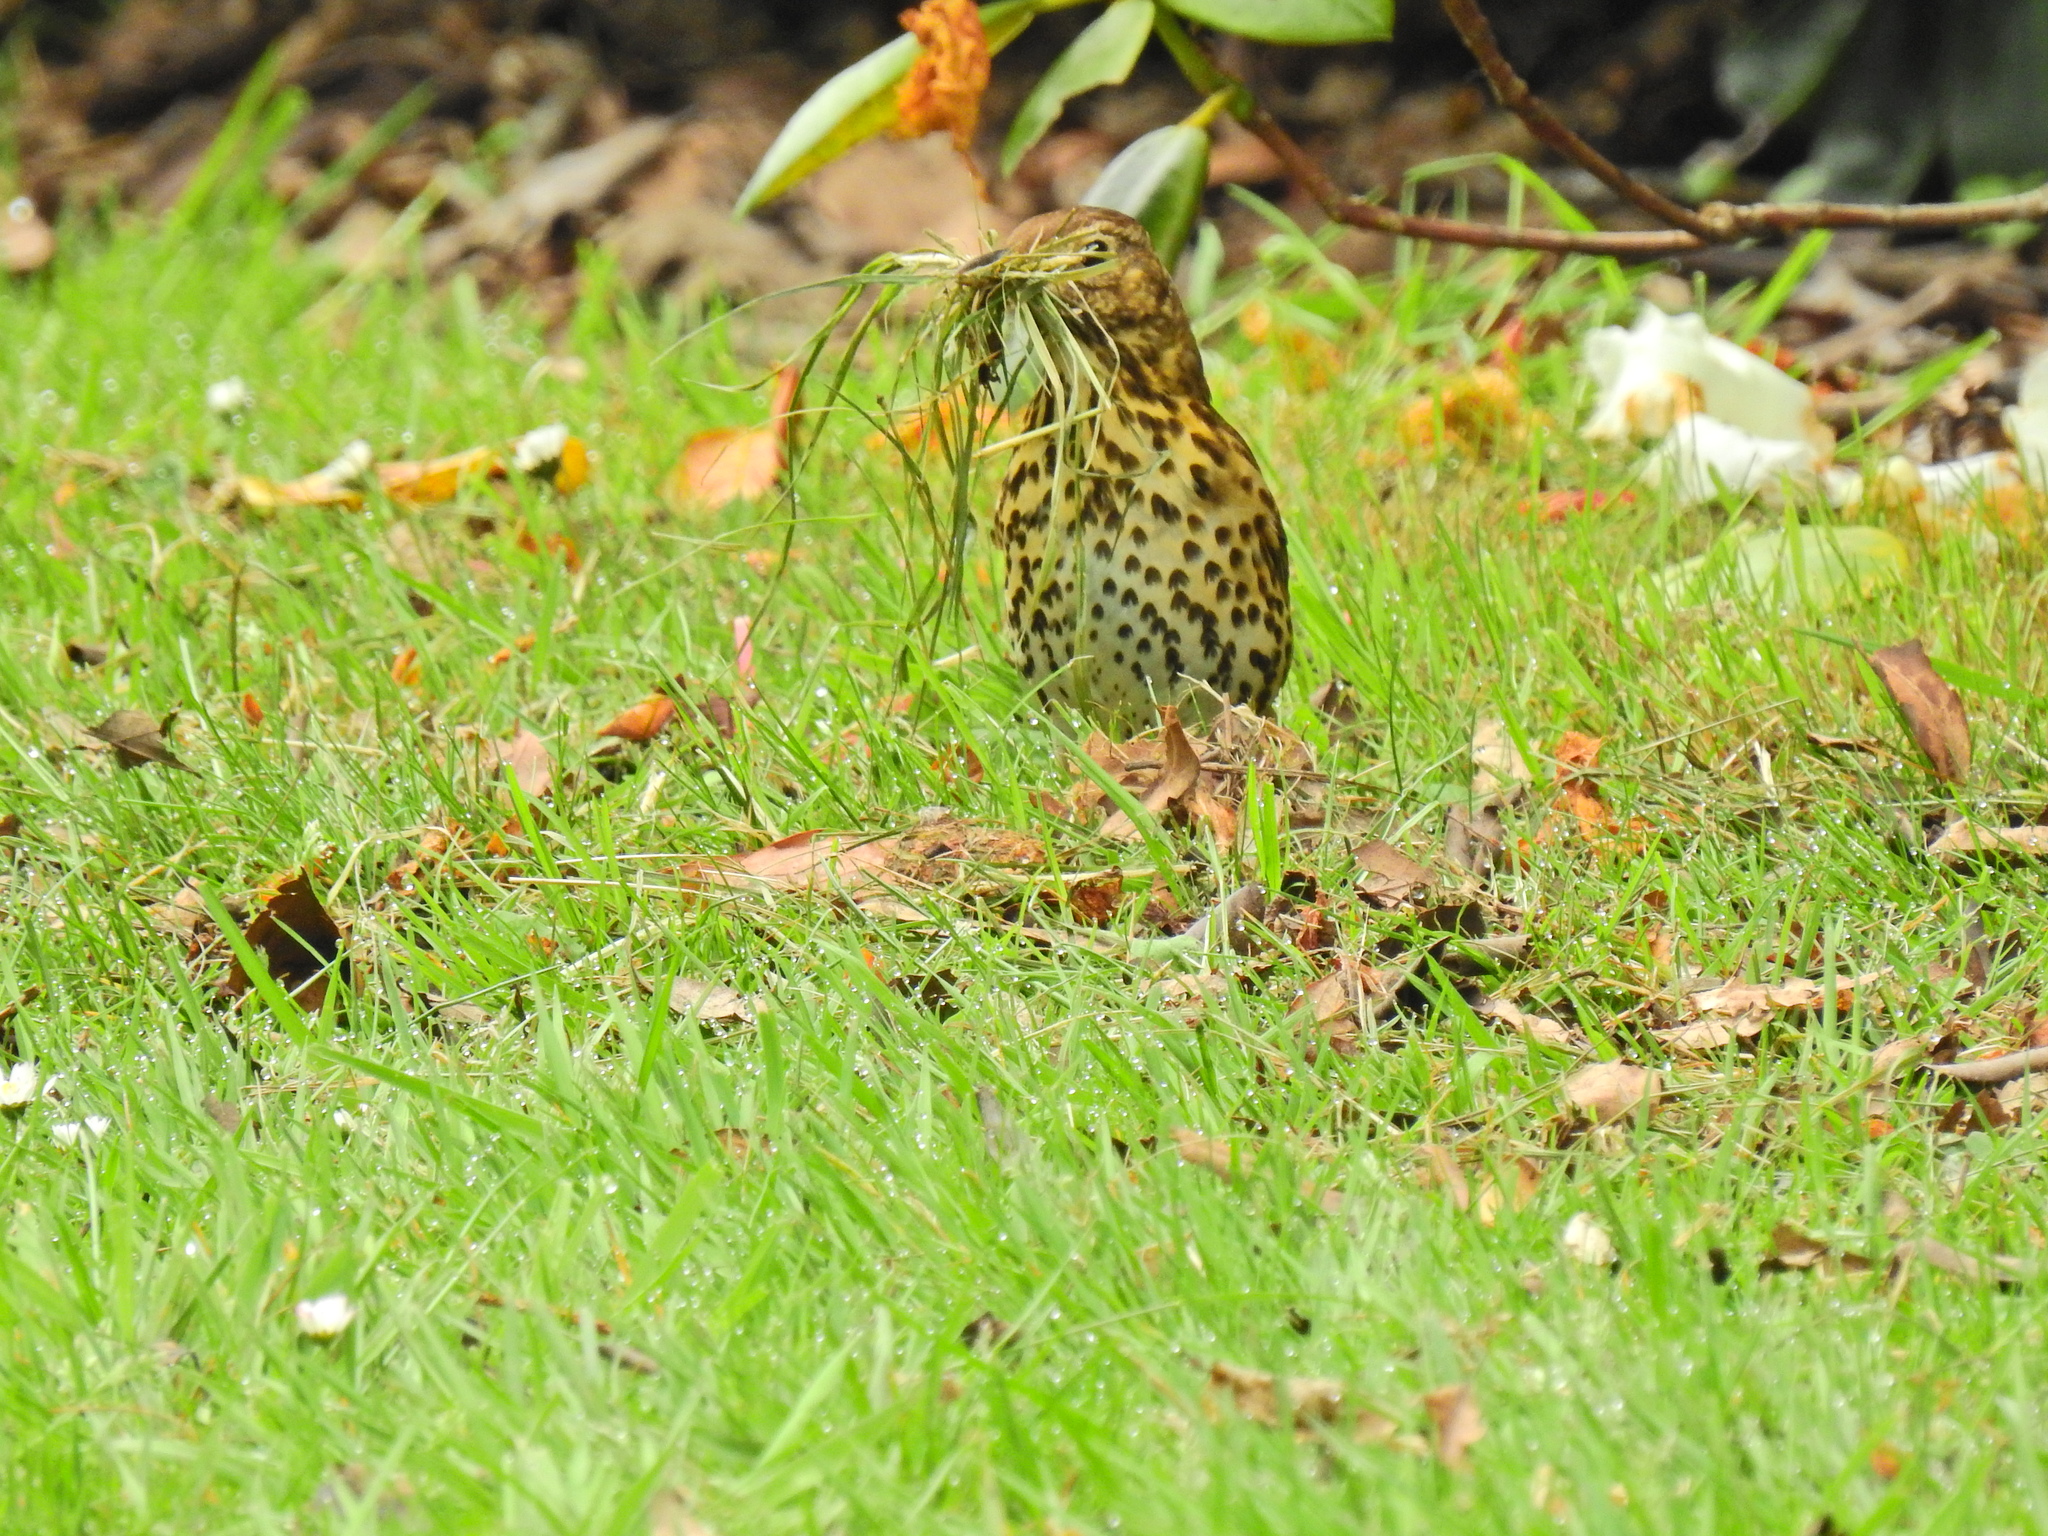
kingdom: Animalia
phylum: Chordata
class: Aves
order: Passeriformes
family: Turdidae
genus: Turdus
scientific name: Turdus philomelos
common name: Song thrush
